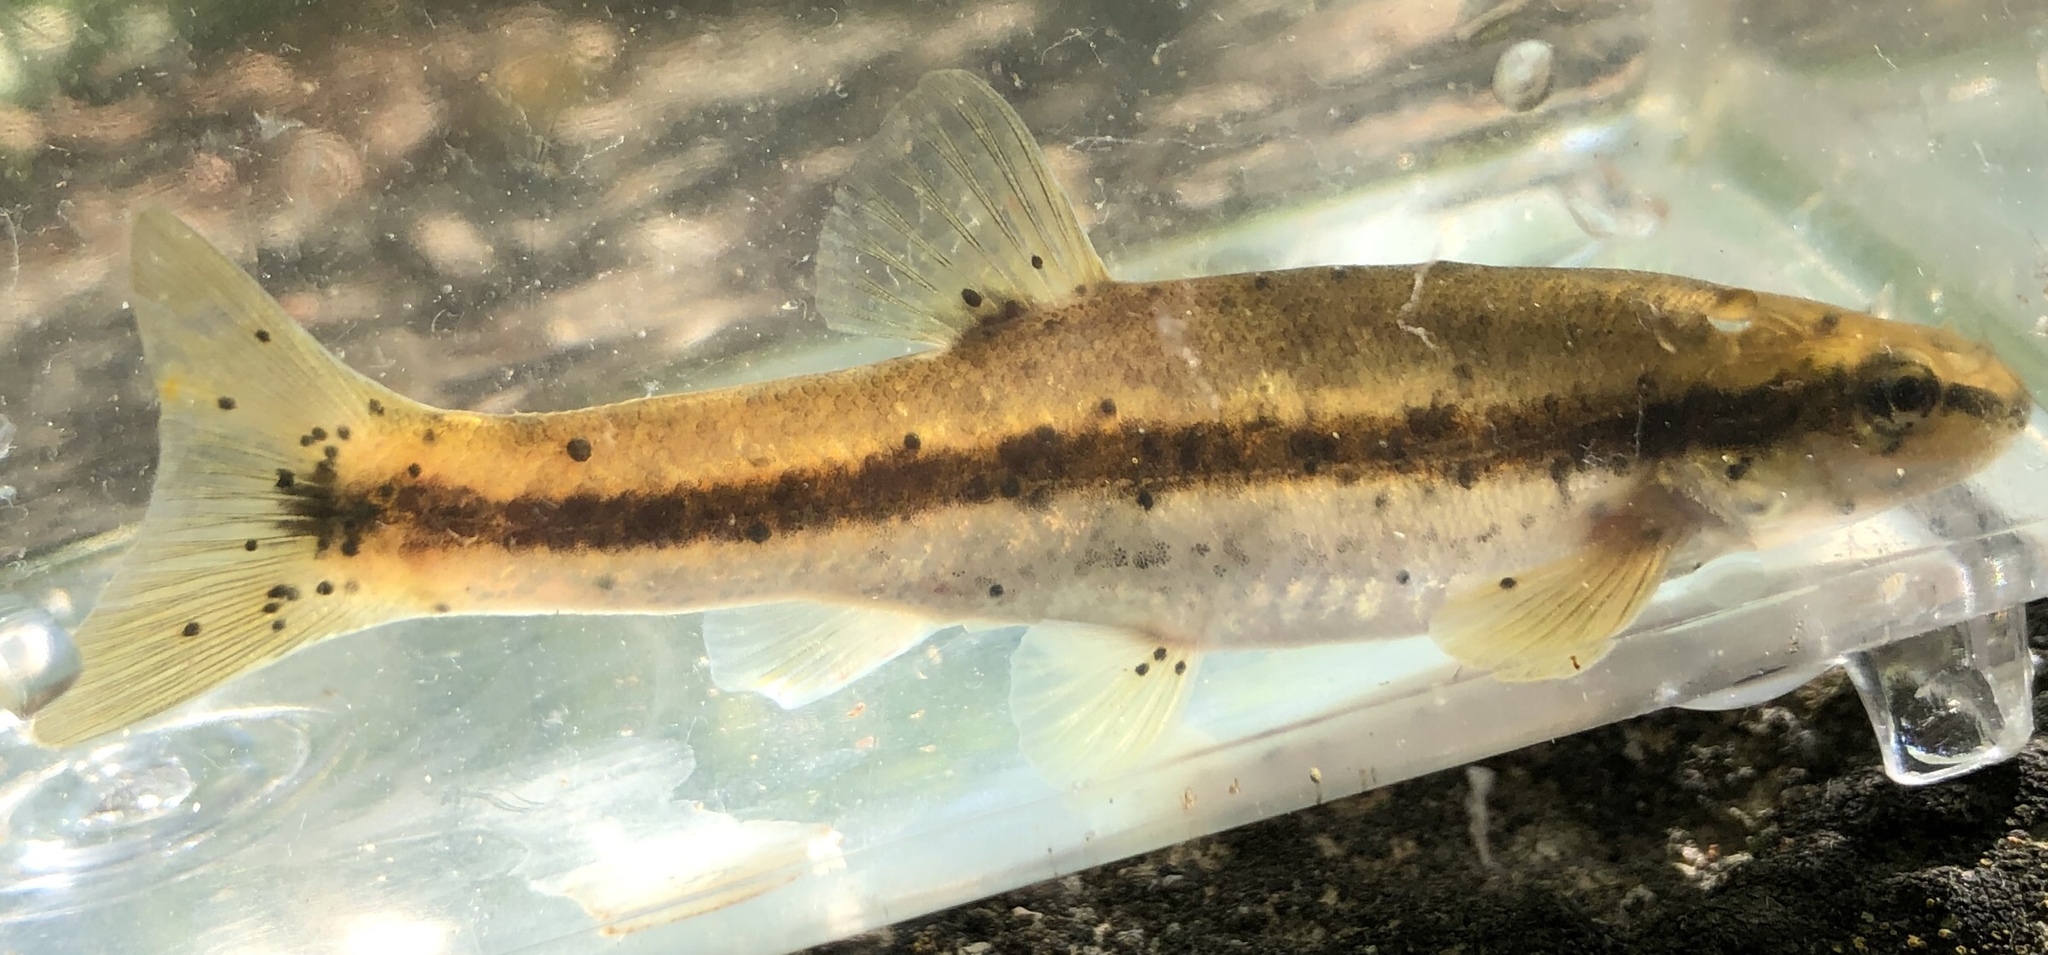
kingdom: Animalia
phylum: Chordata
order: Cypriniformes
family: Cyprinidae
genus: Rhinichthys
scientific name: Rhinichthys obtusus
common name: Western blacknose dace
